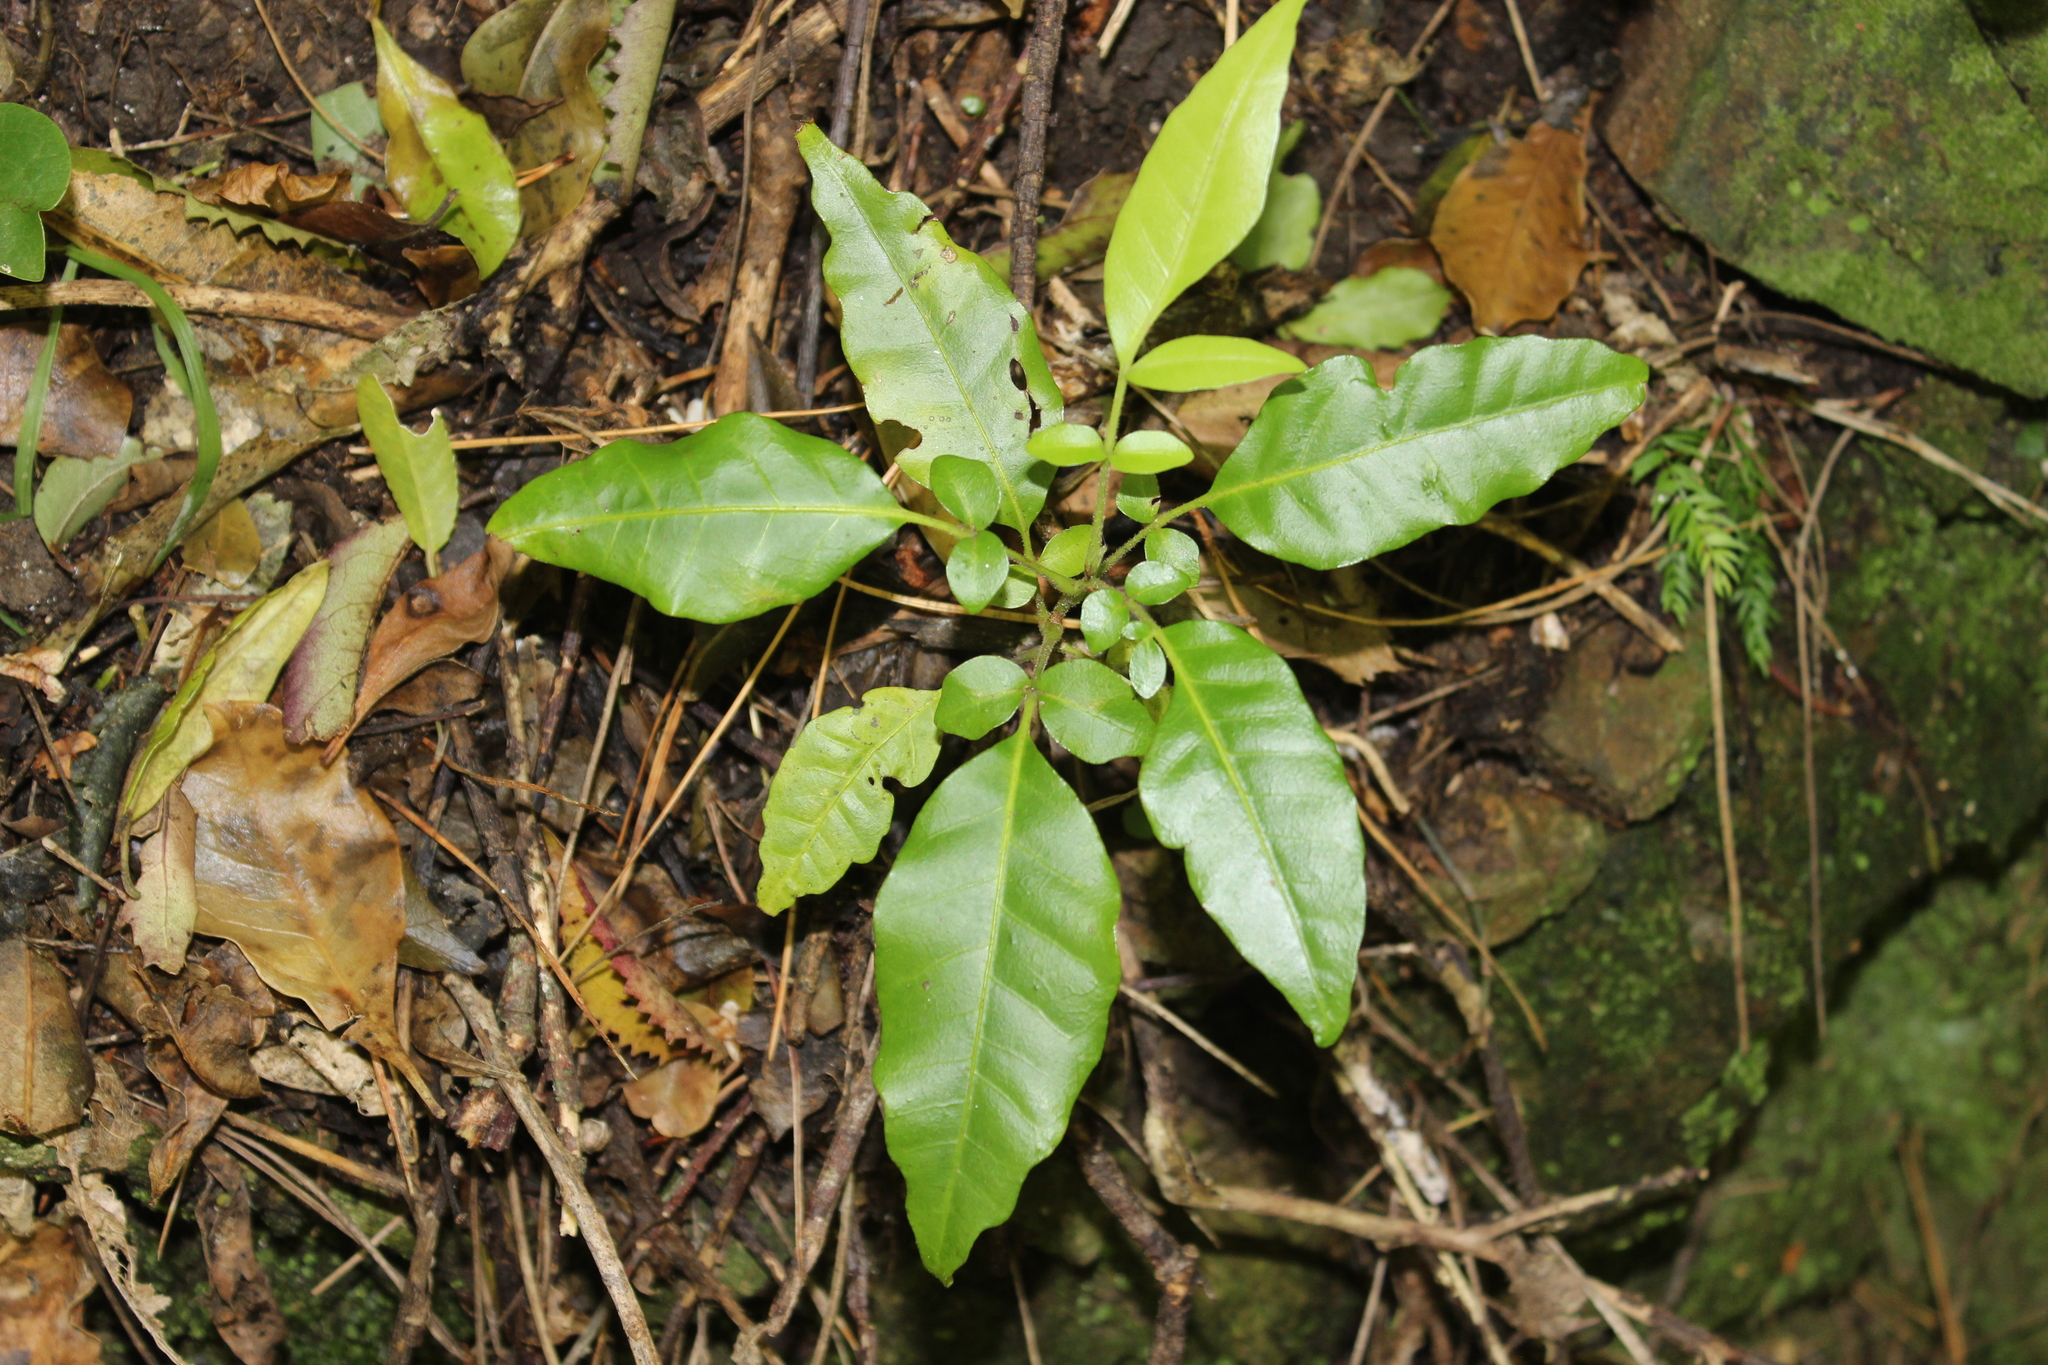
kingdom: Plantae
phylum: Tracheophyta
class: Magnoliopsida
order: Sapindales
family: Meliaceae
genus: Didymocheton
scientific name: Didymocheton spectabilis
